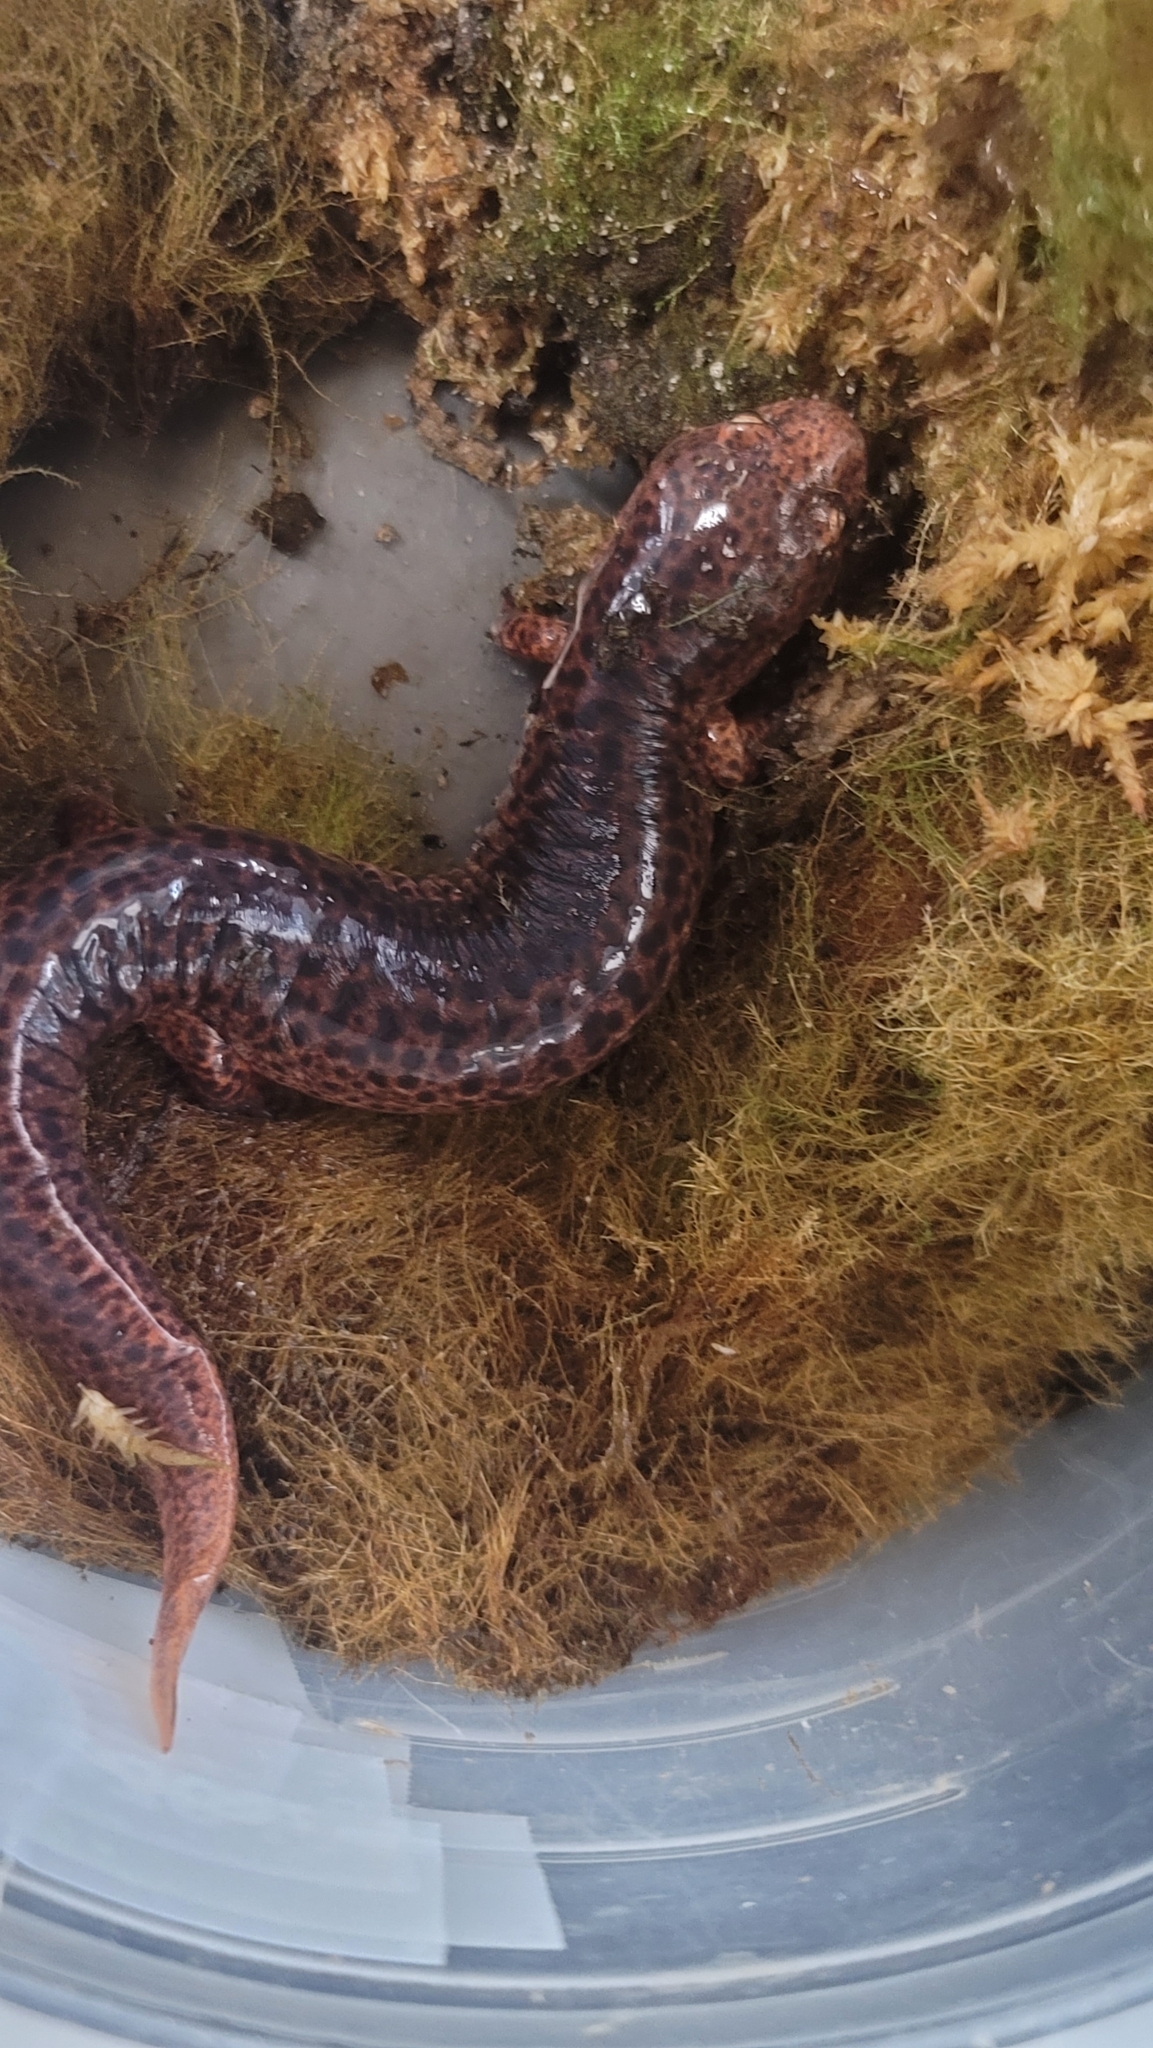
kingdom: Animalia
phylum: Chordata
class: Amphibia
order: Caudata
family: Plethodontidae
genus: Pseudotriton
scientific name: Pseudotriton ruber
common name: Red salamander
